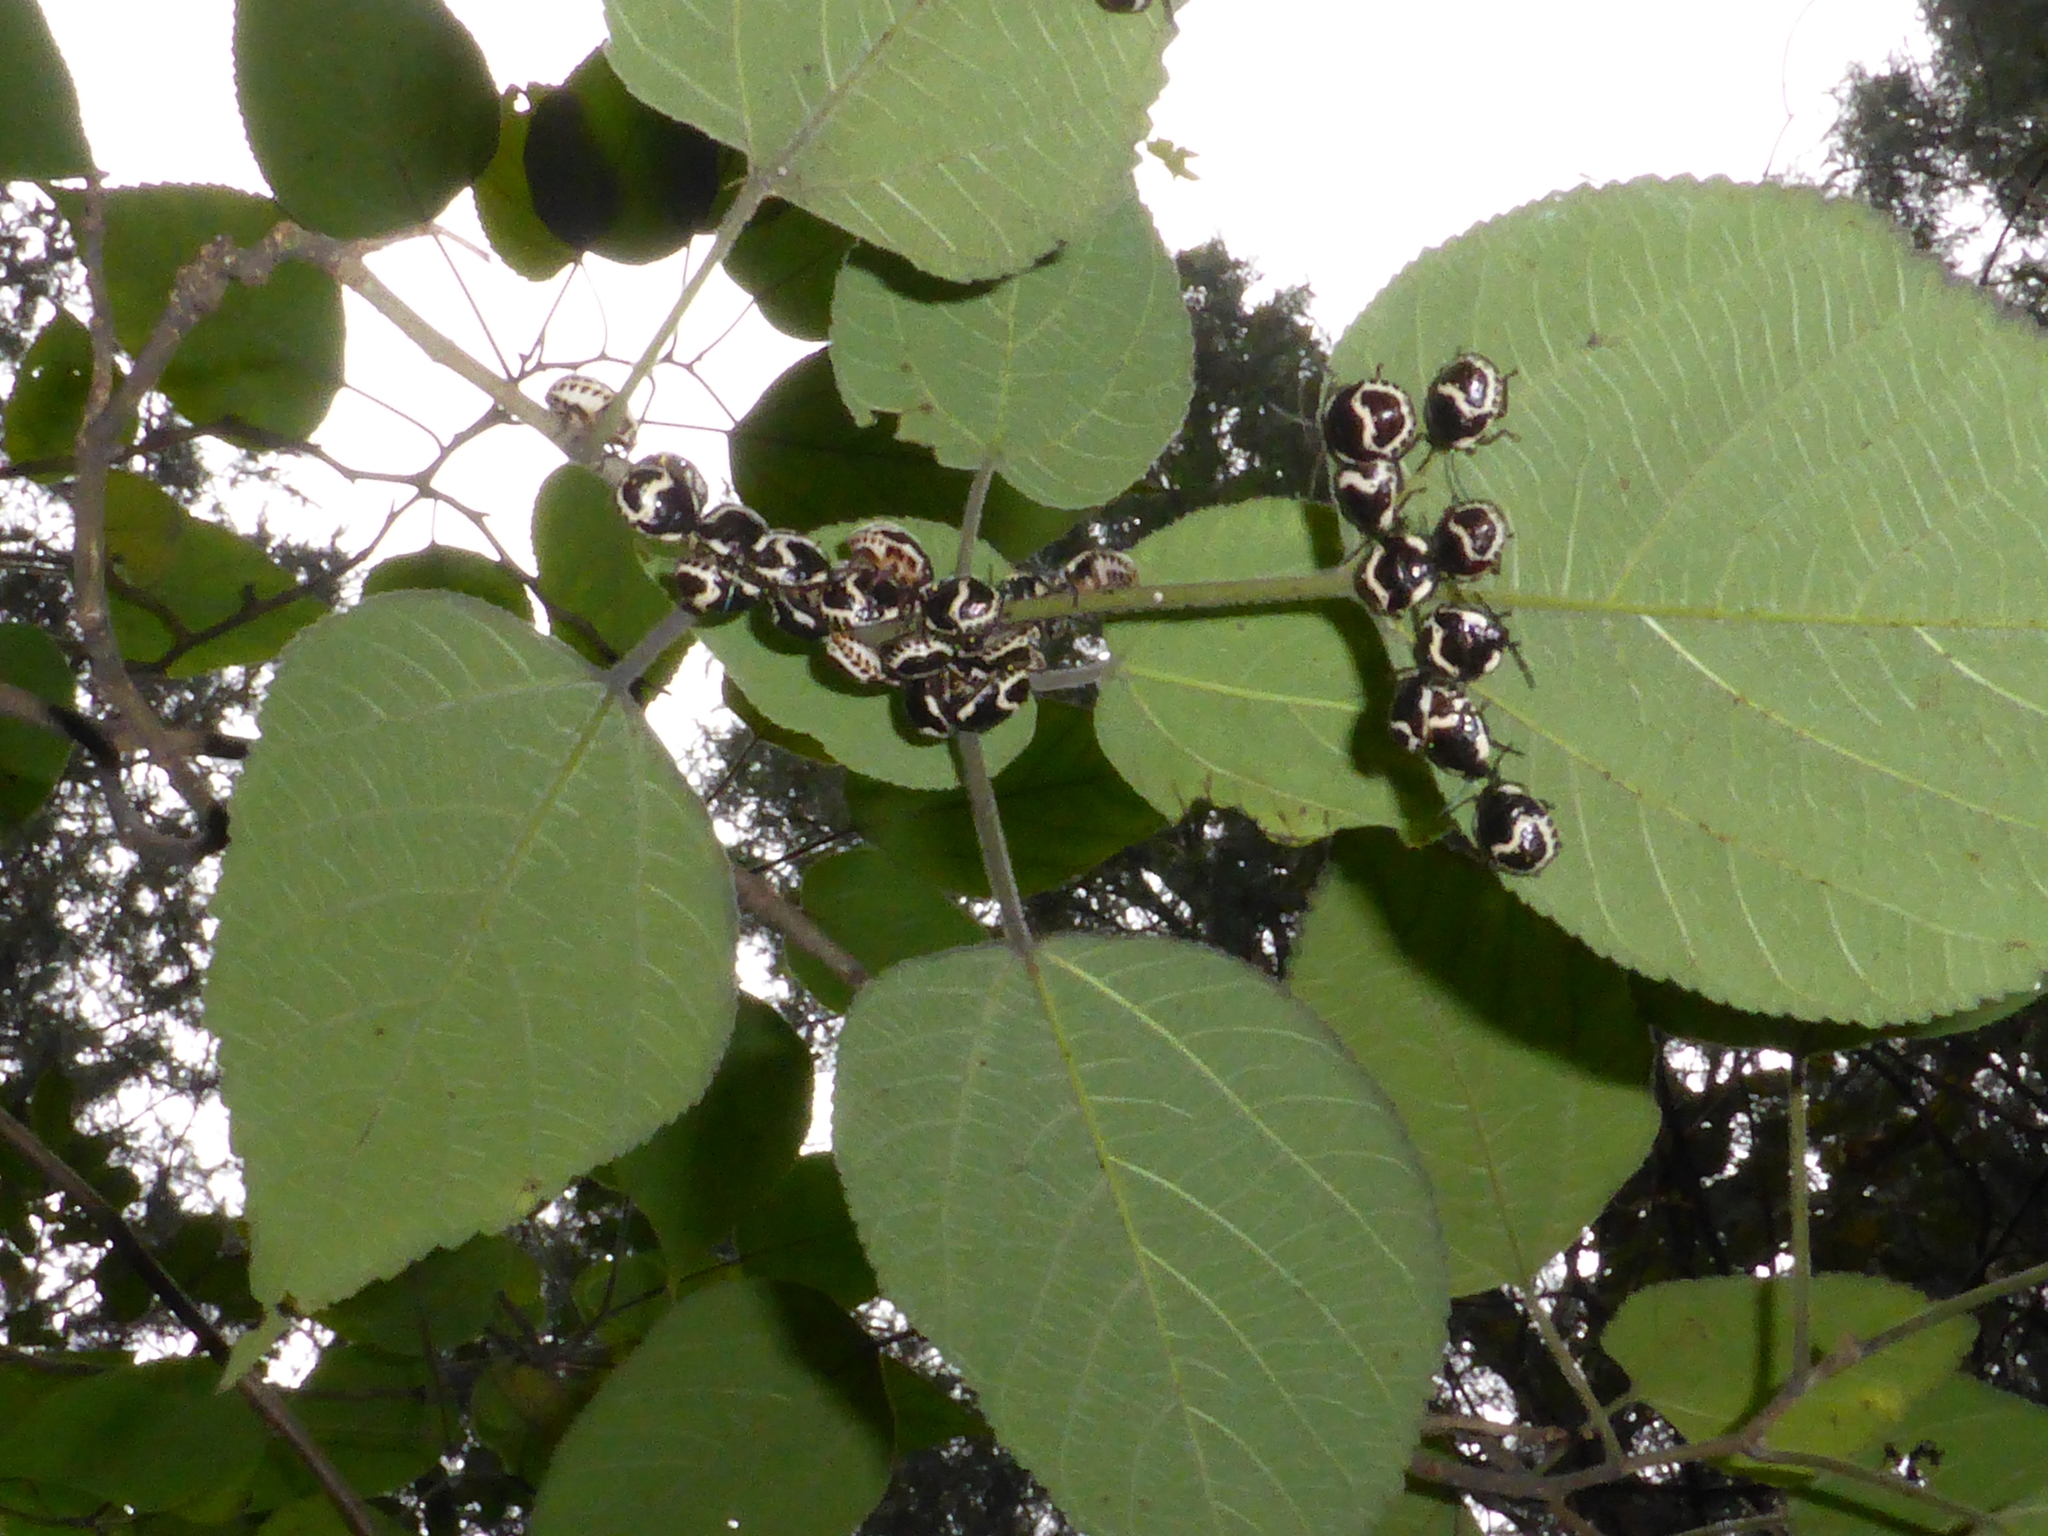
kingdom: Animalia
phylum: Arthropoda
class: Insecta
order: Hemiptera
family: Scutelleridae
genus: Poecilocoris
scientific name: Poecilocoris lewisi
